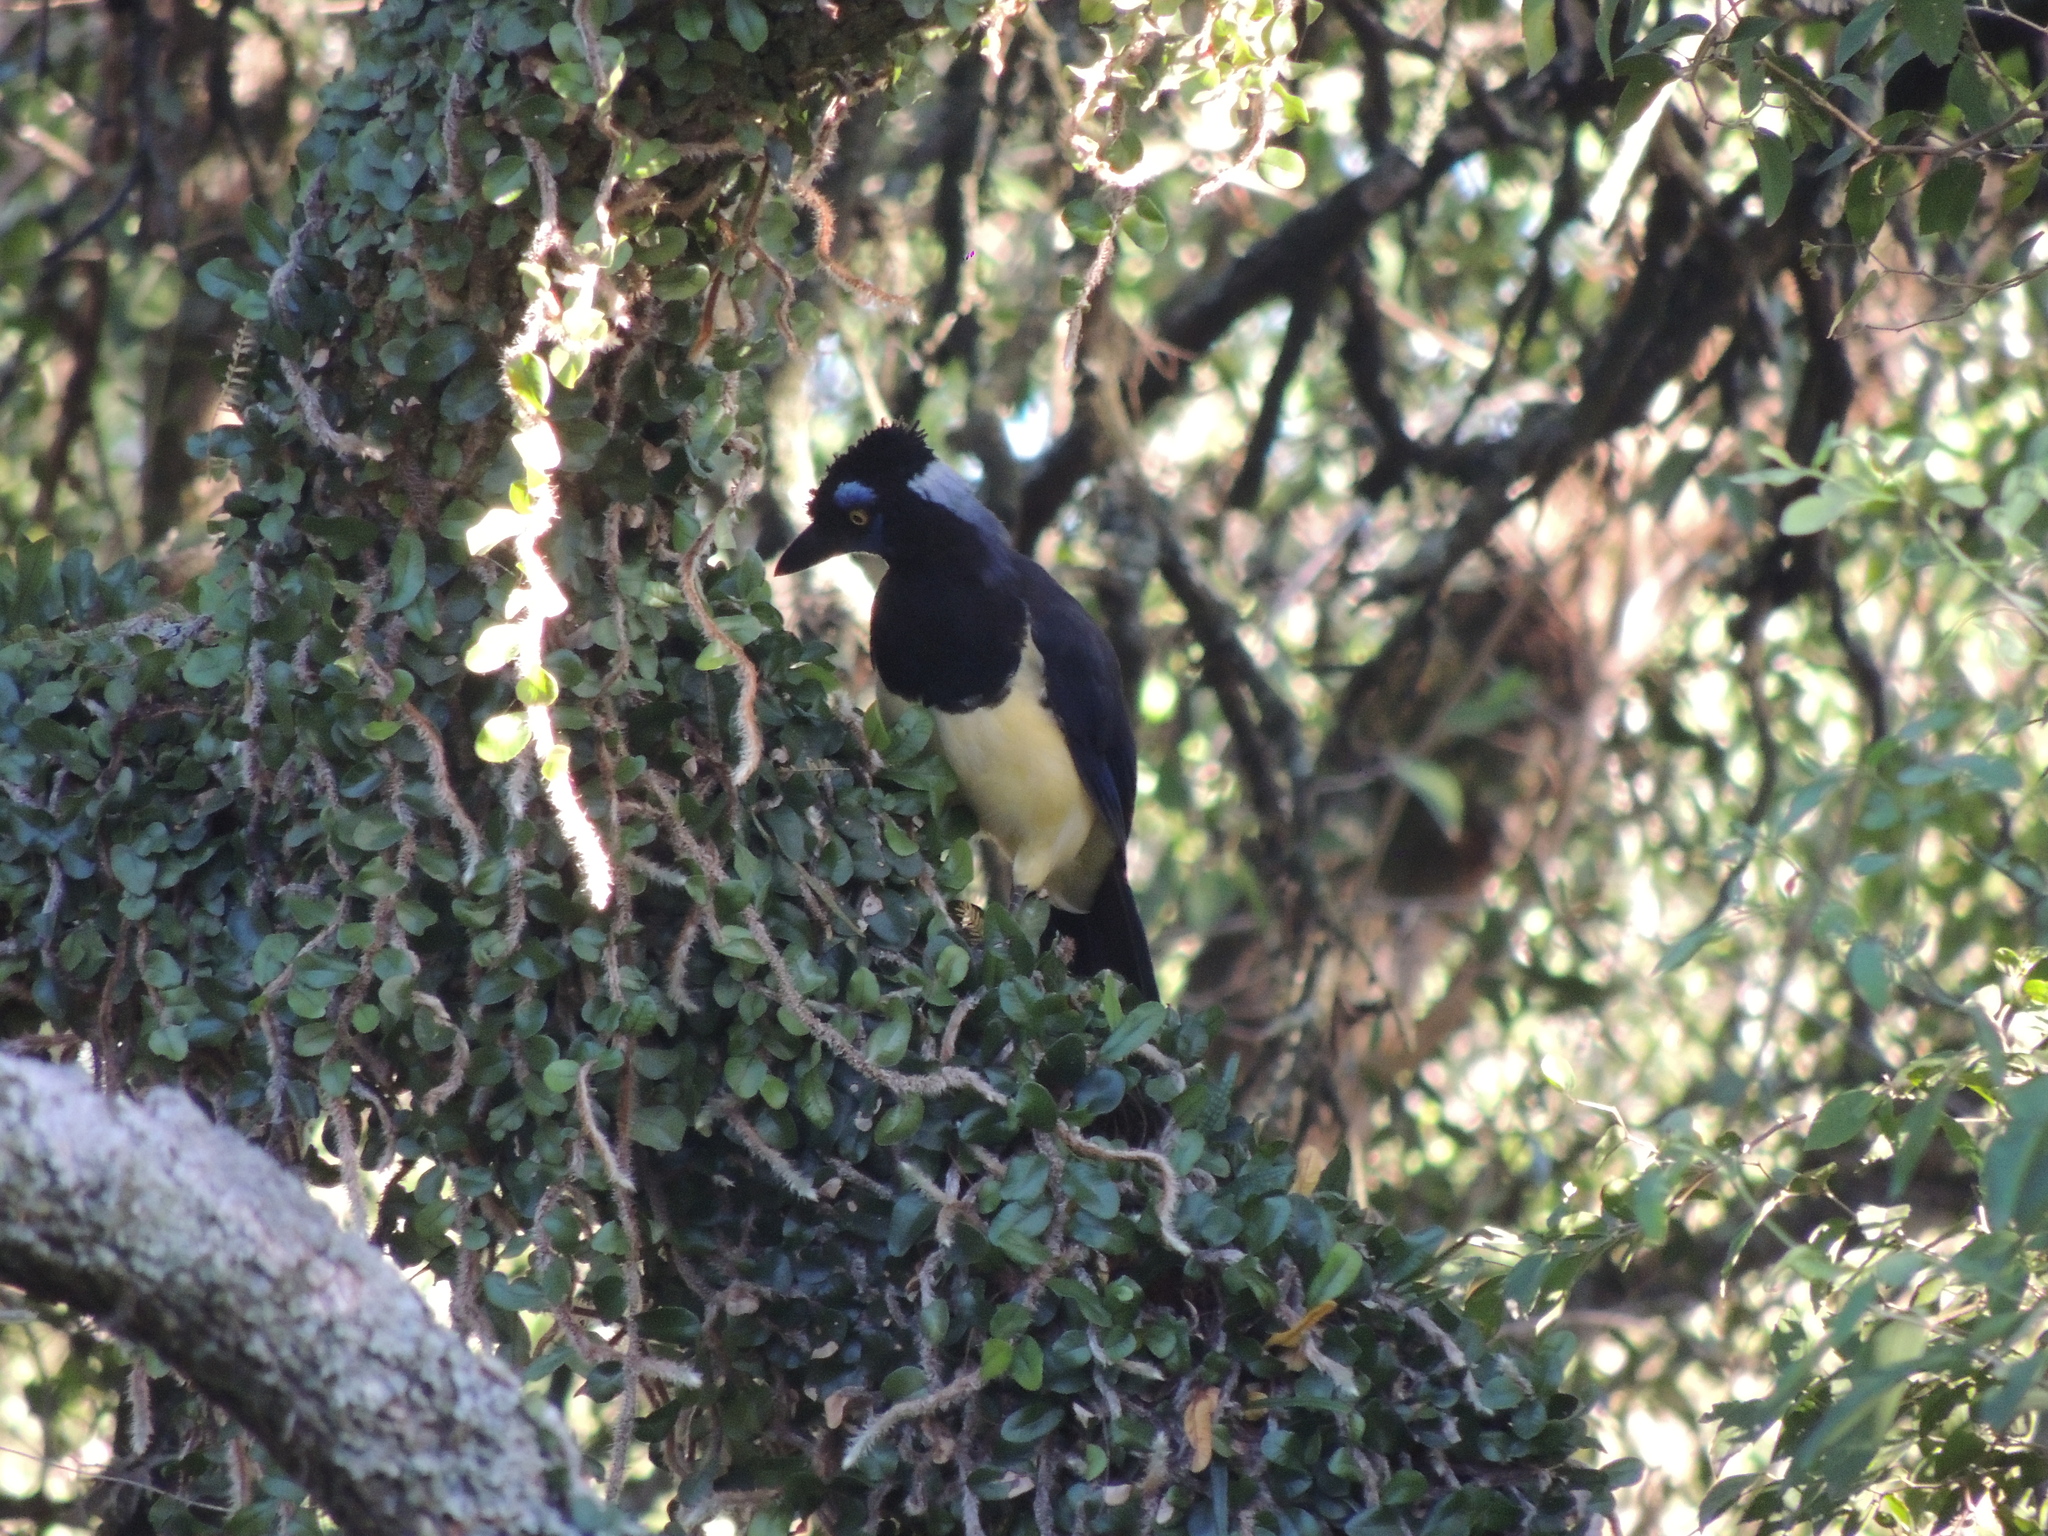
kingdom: Animalia
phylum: Chordata
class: Aves
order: Passeriformes
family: Corvidae
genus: Cyanocorax
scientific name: Cyanocorax chrysops
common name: Plush-crested jay
